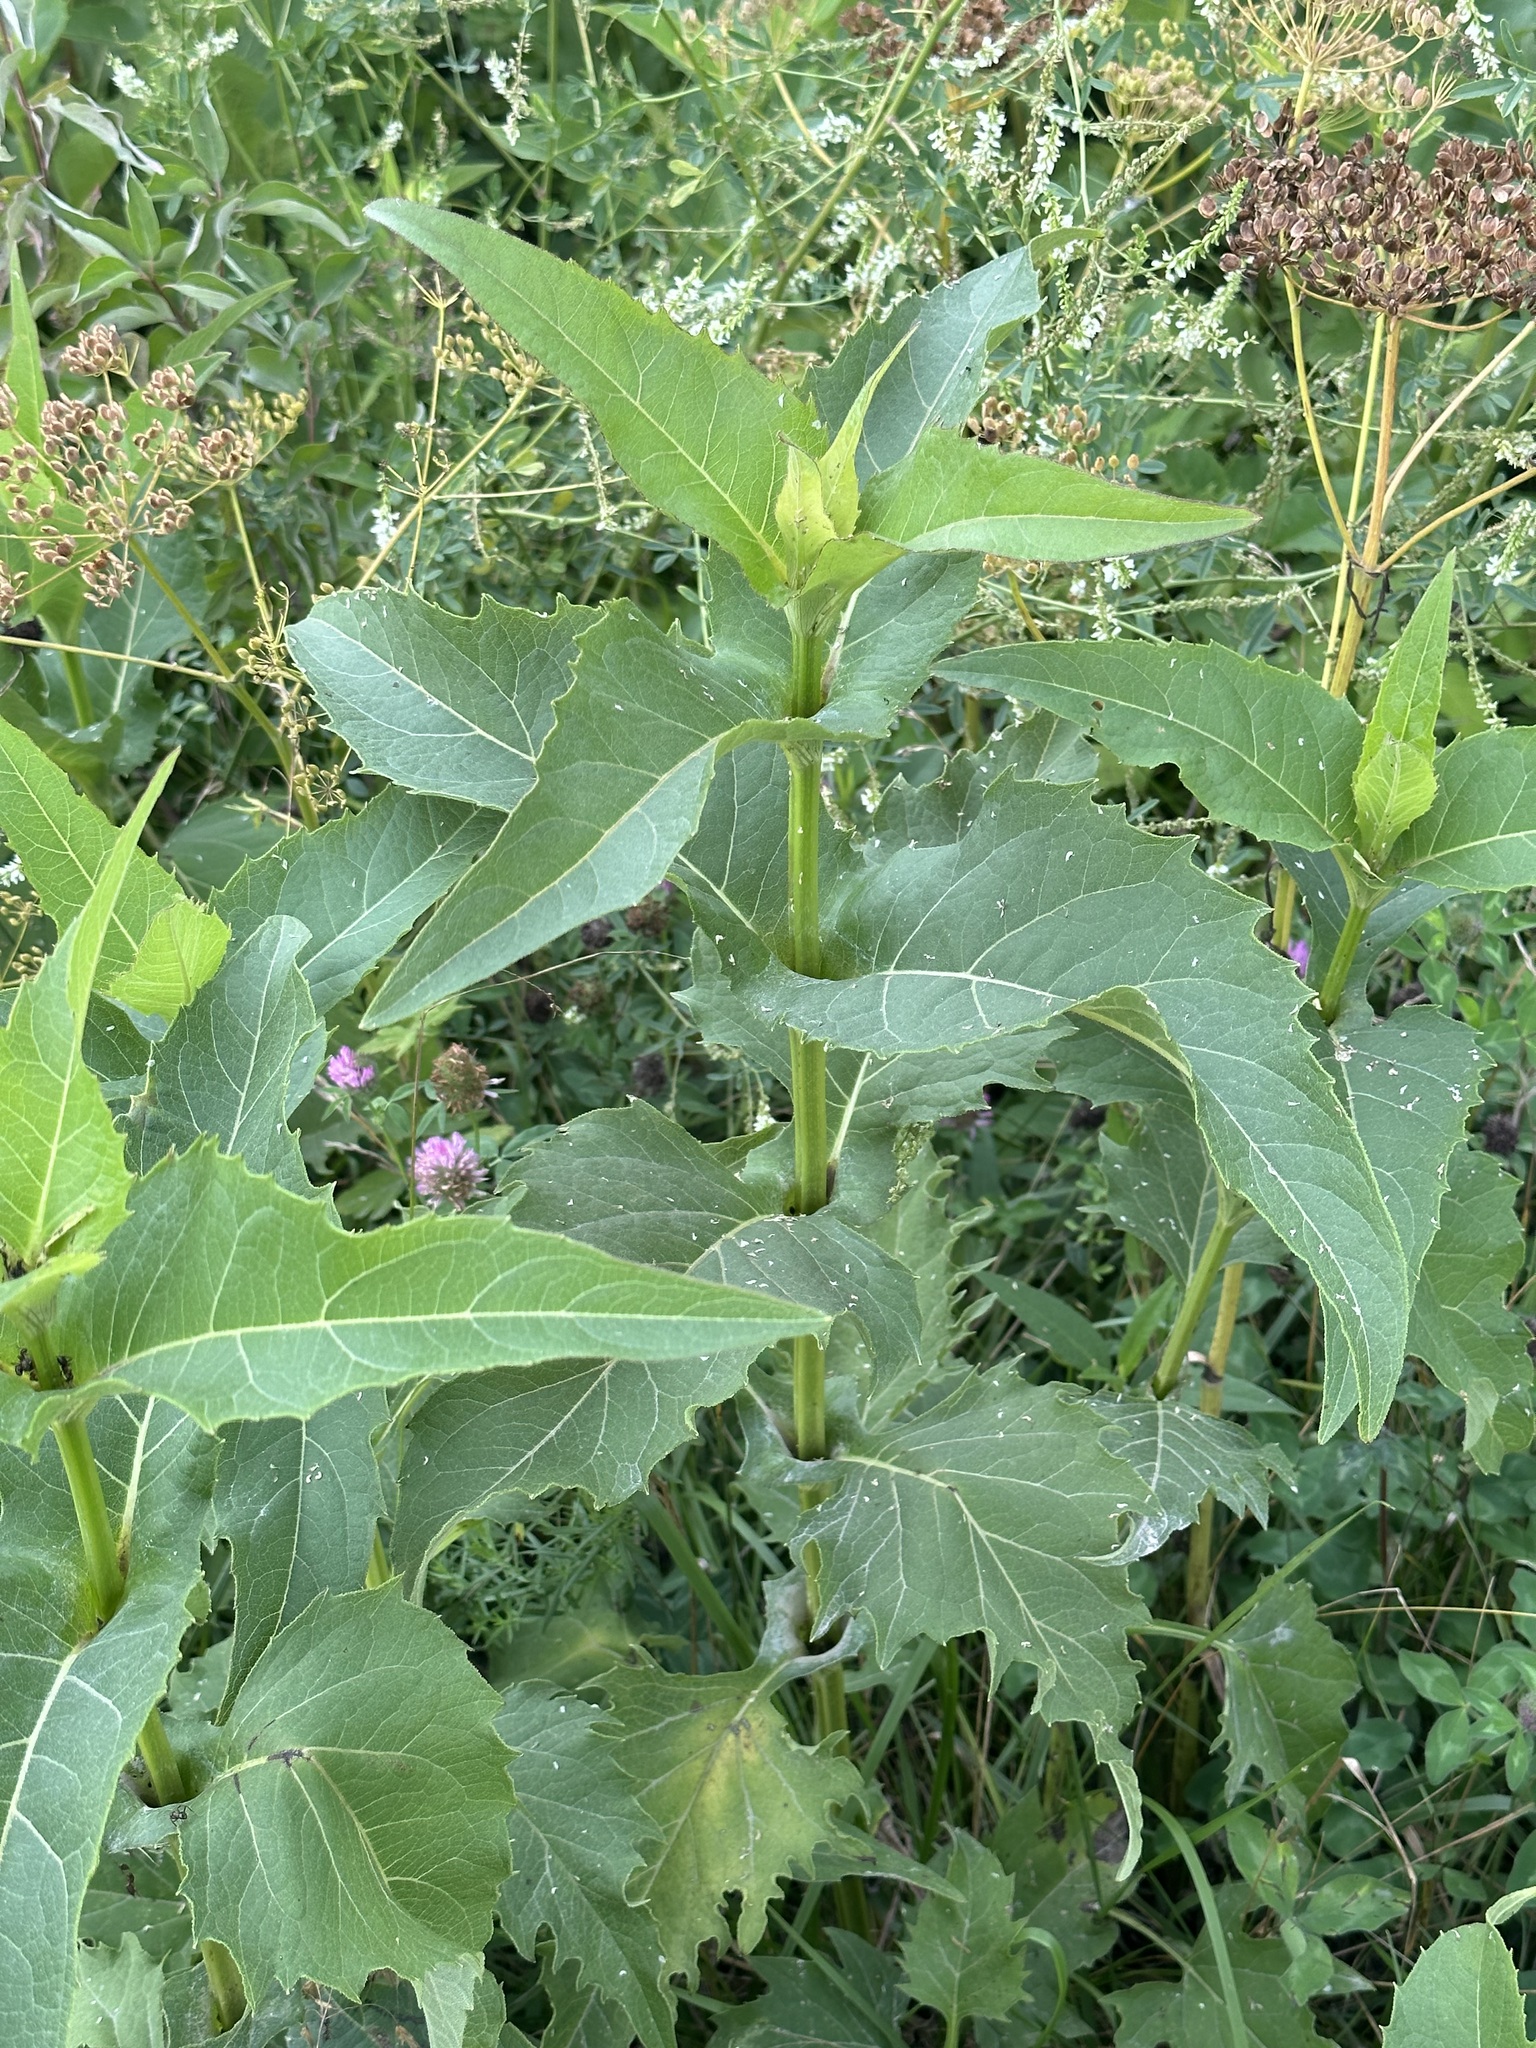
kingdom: Plantae
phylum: Tracheophyta
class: Magnoliopsida
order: Asterales
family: Asteraceae
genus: Silphium
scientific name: Silphium perfoliatum
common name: Cup-plant
